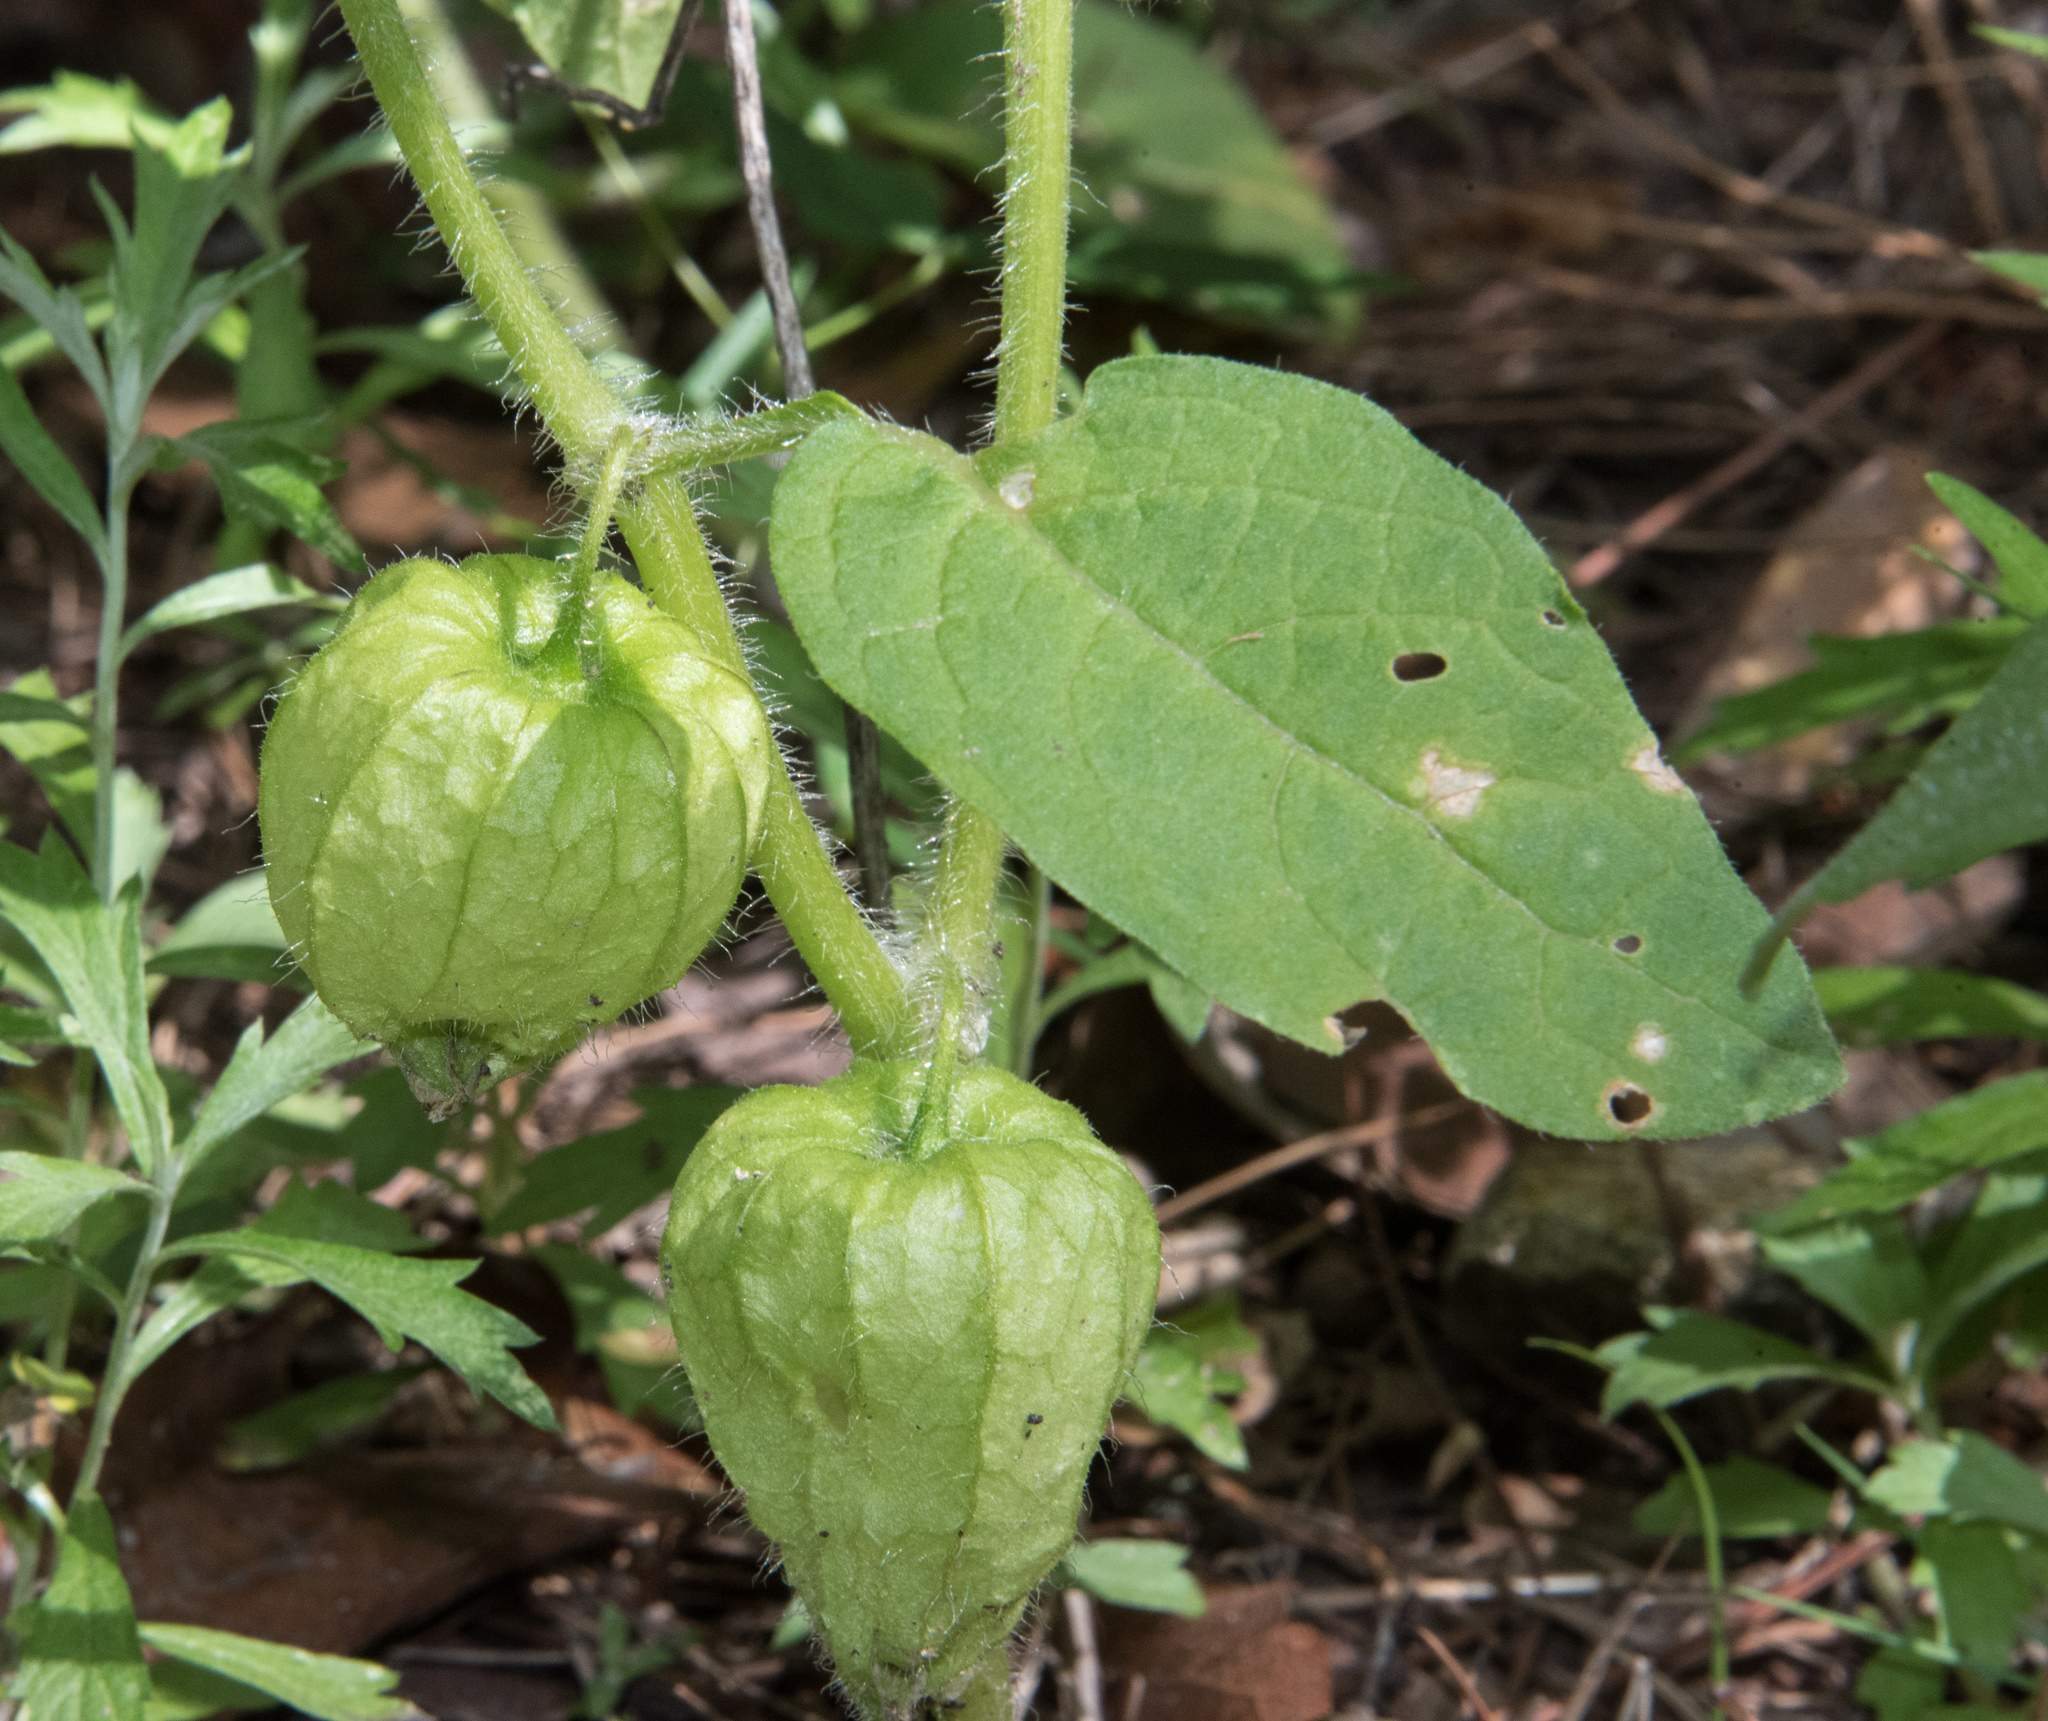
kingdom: Plantae
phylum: Tracheophyta
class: Magnoliopsida
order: Solanales
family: Solanaceae
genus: Physalis
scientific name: Physalis caudella
